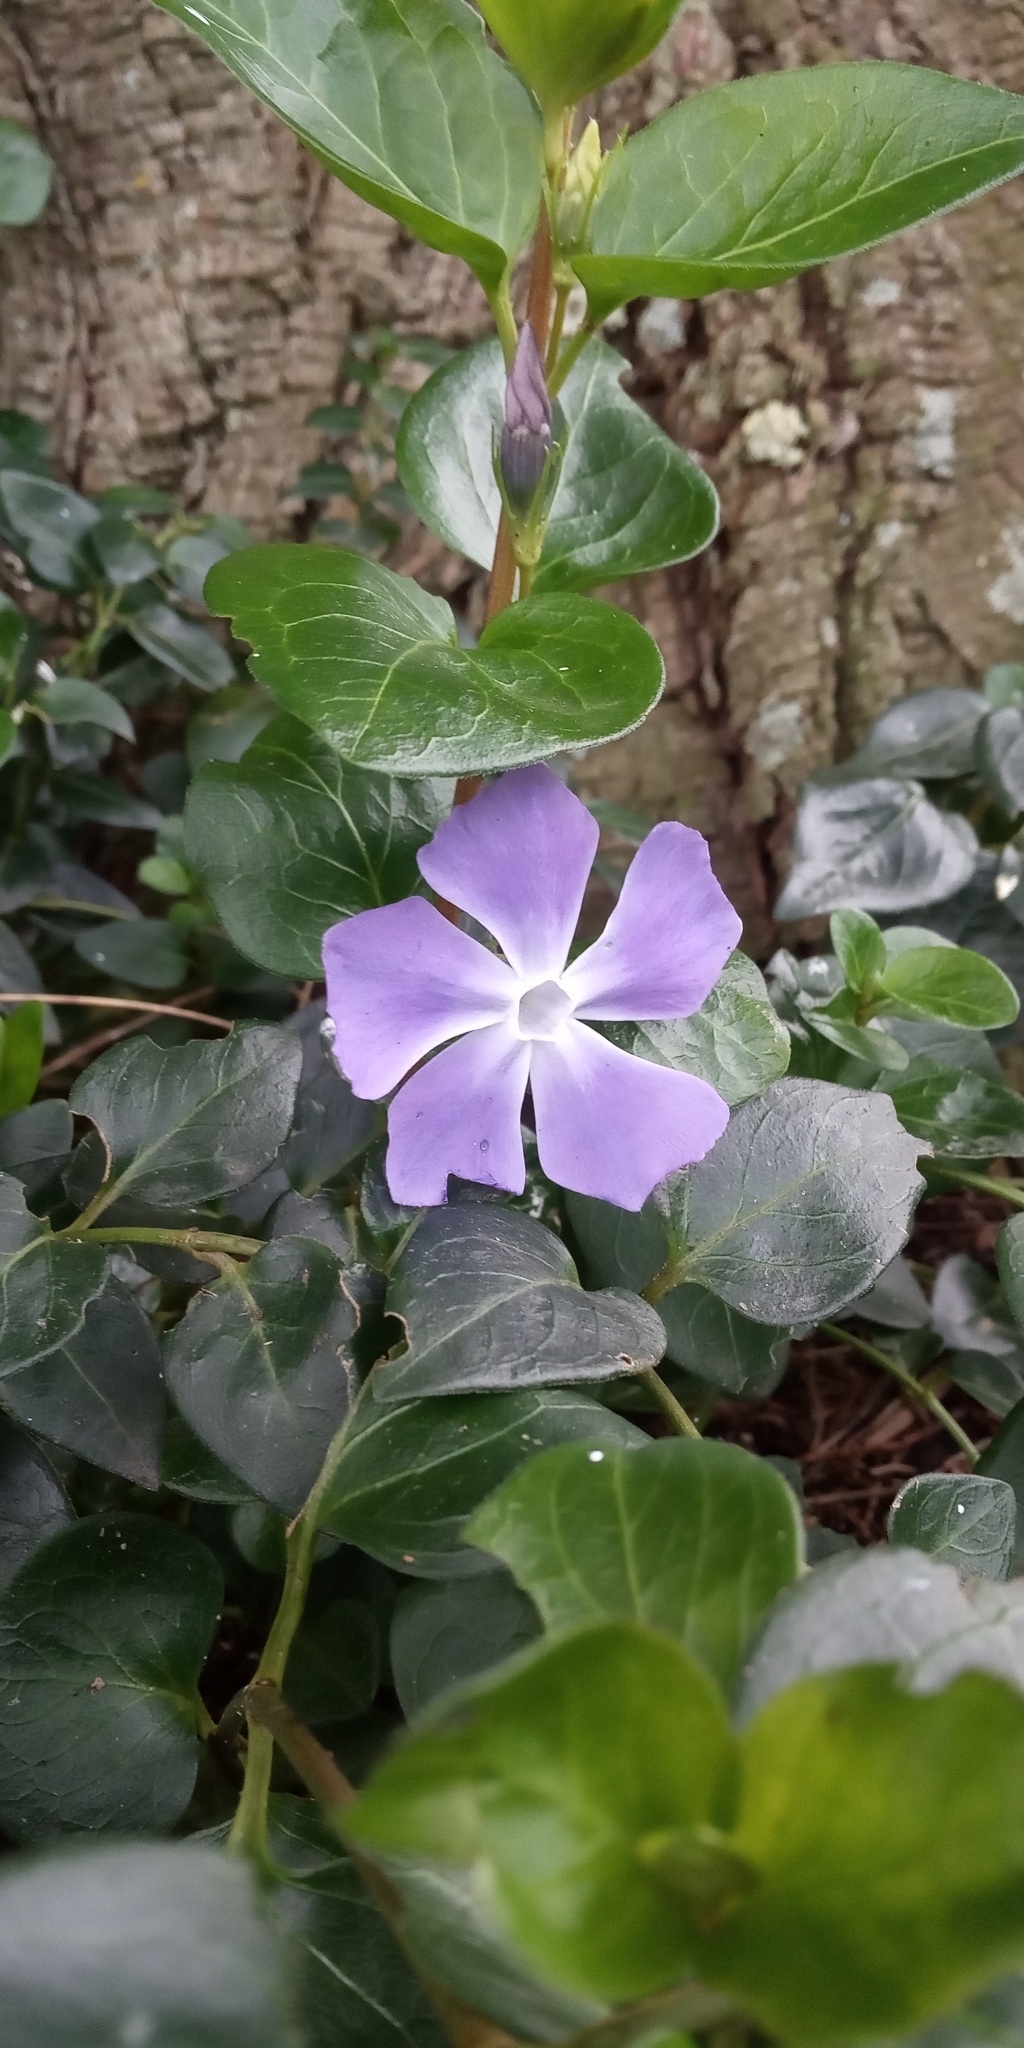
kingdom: Plantae
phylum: Tracheophyta
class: Magnoliopsida
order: Gentianales
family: Apocynaceae
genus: Vinca
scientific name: Vinca major
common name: Greater periwinkle
